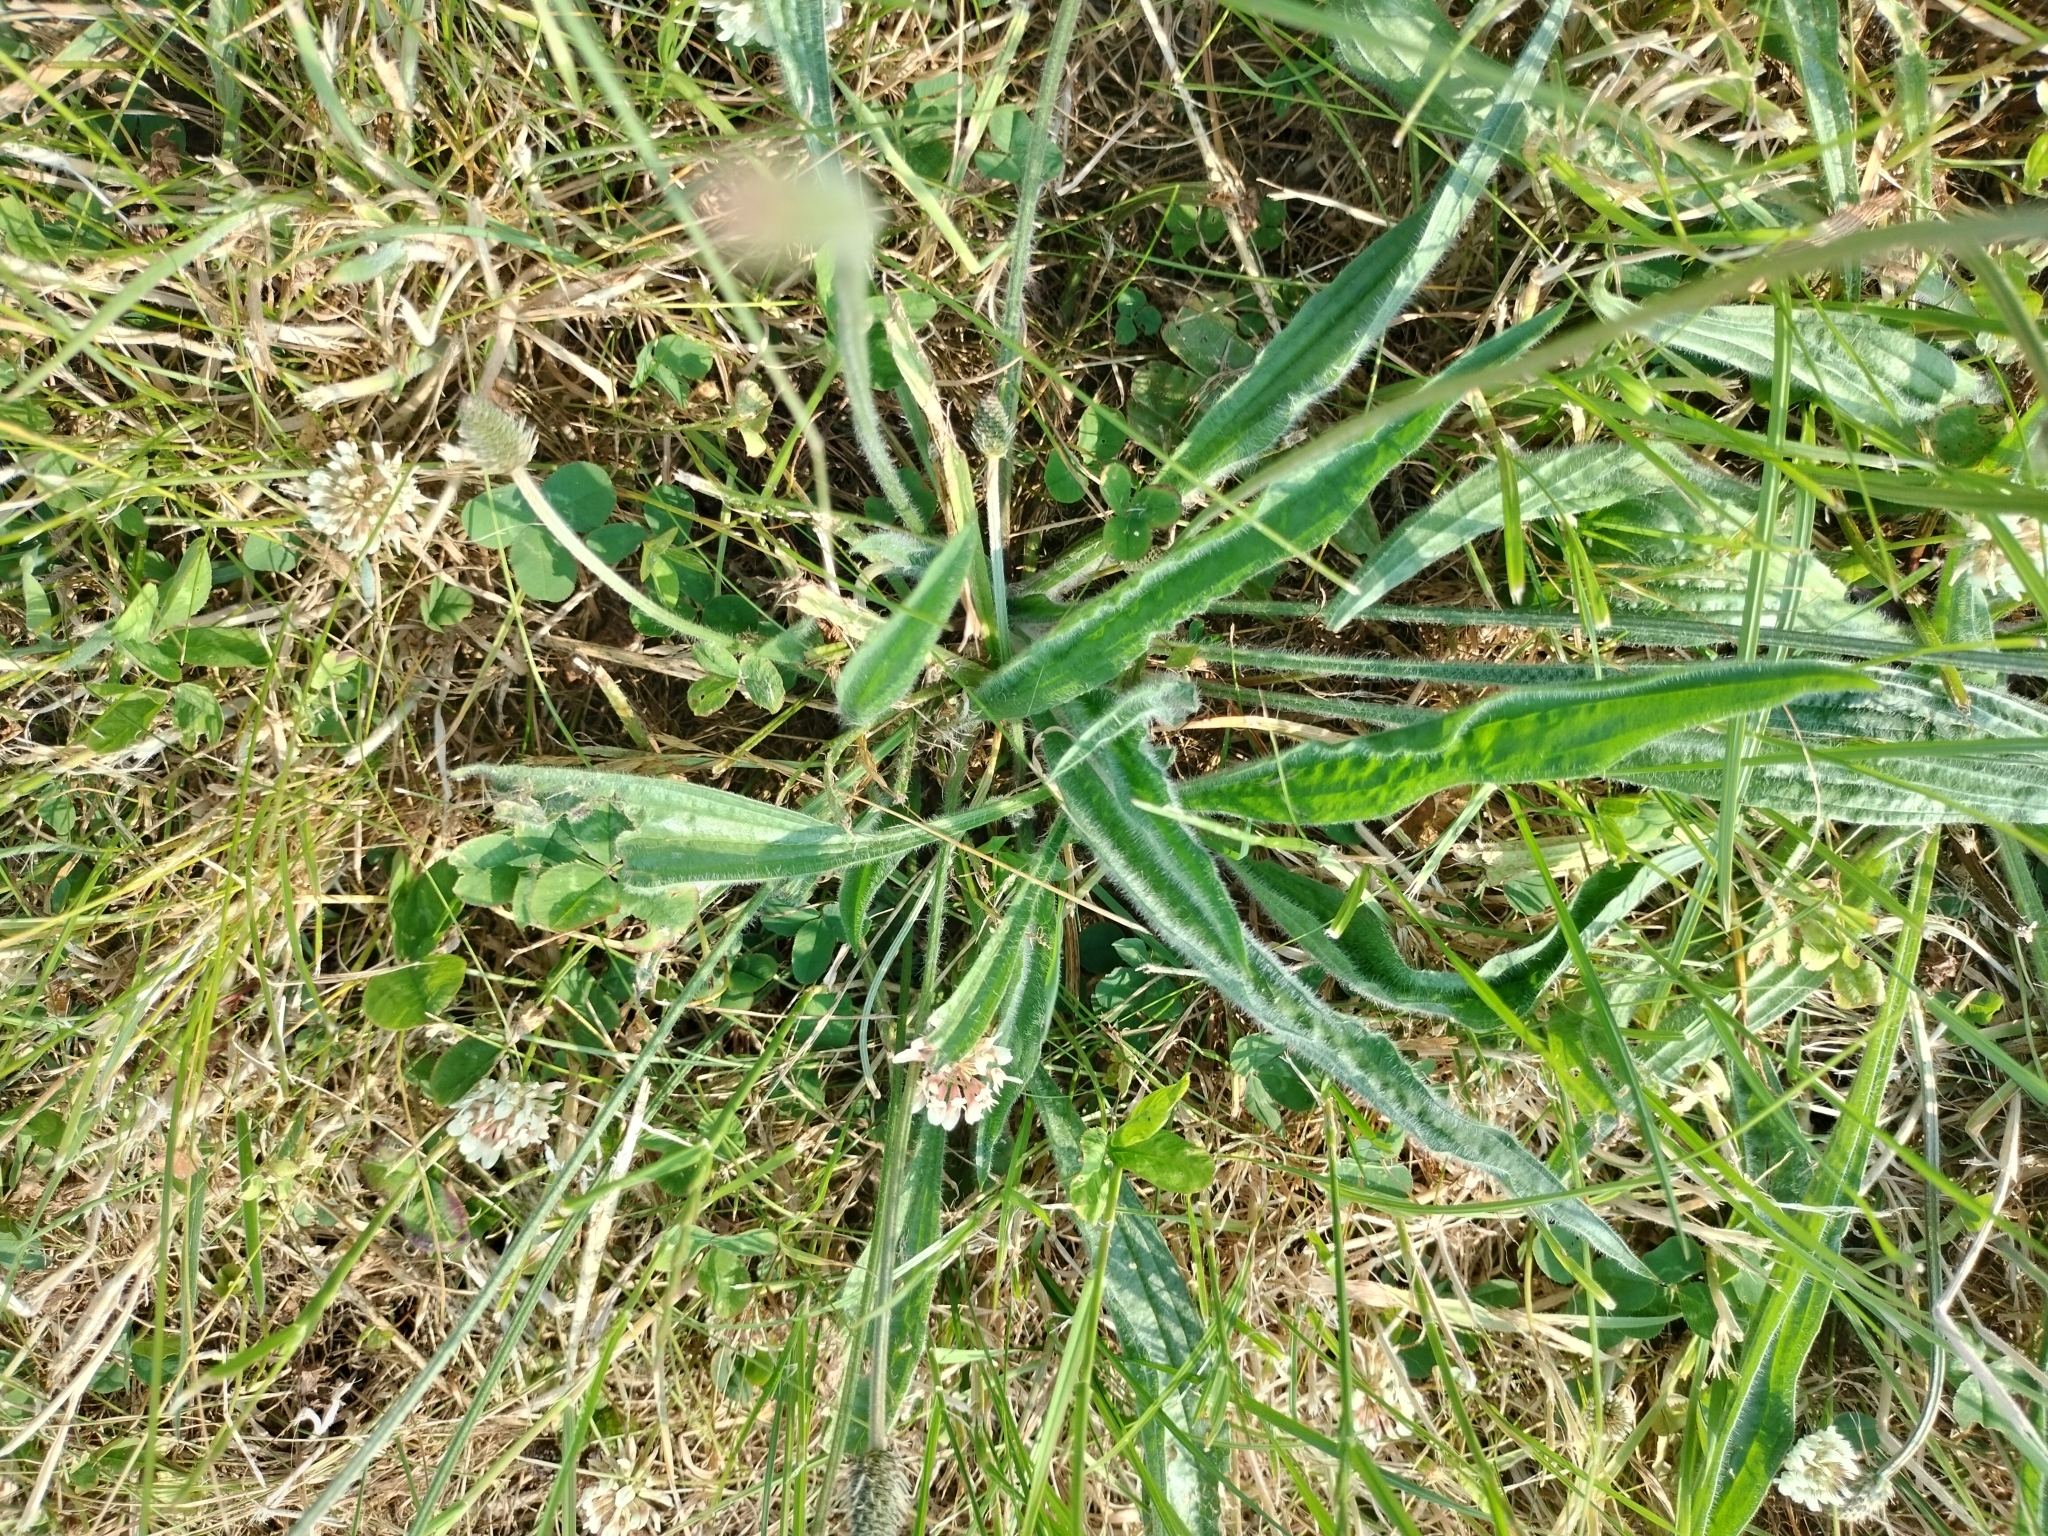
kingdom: Plantae
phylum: Tracheophyta
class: Magnoliopsida
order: Lamiales
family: Plantaginaceae
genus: Plantago
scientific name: Plantago lanceolata
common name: Ribwort plantain
